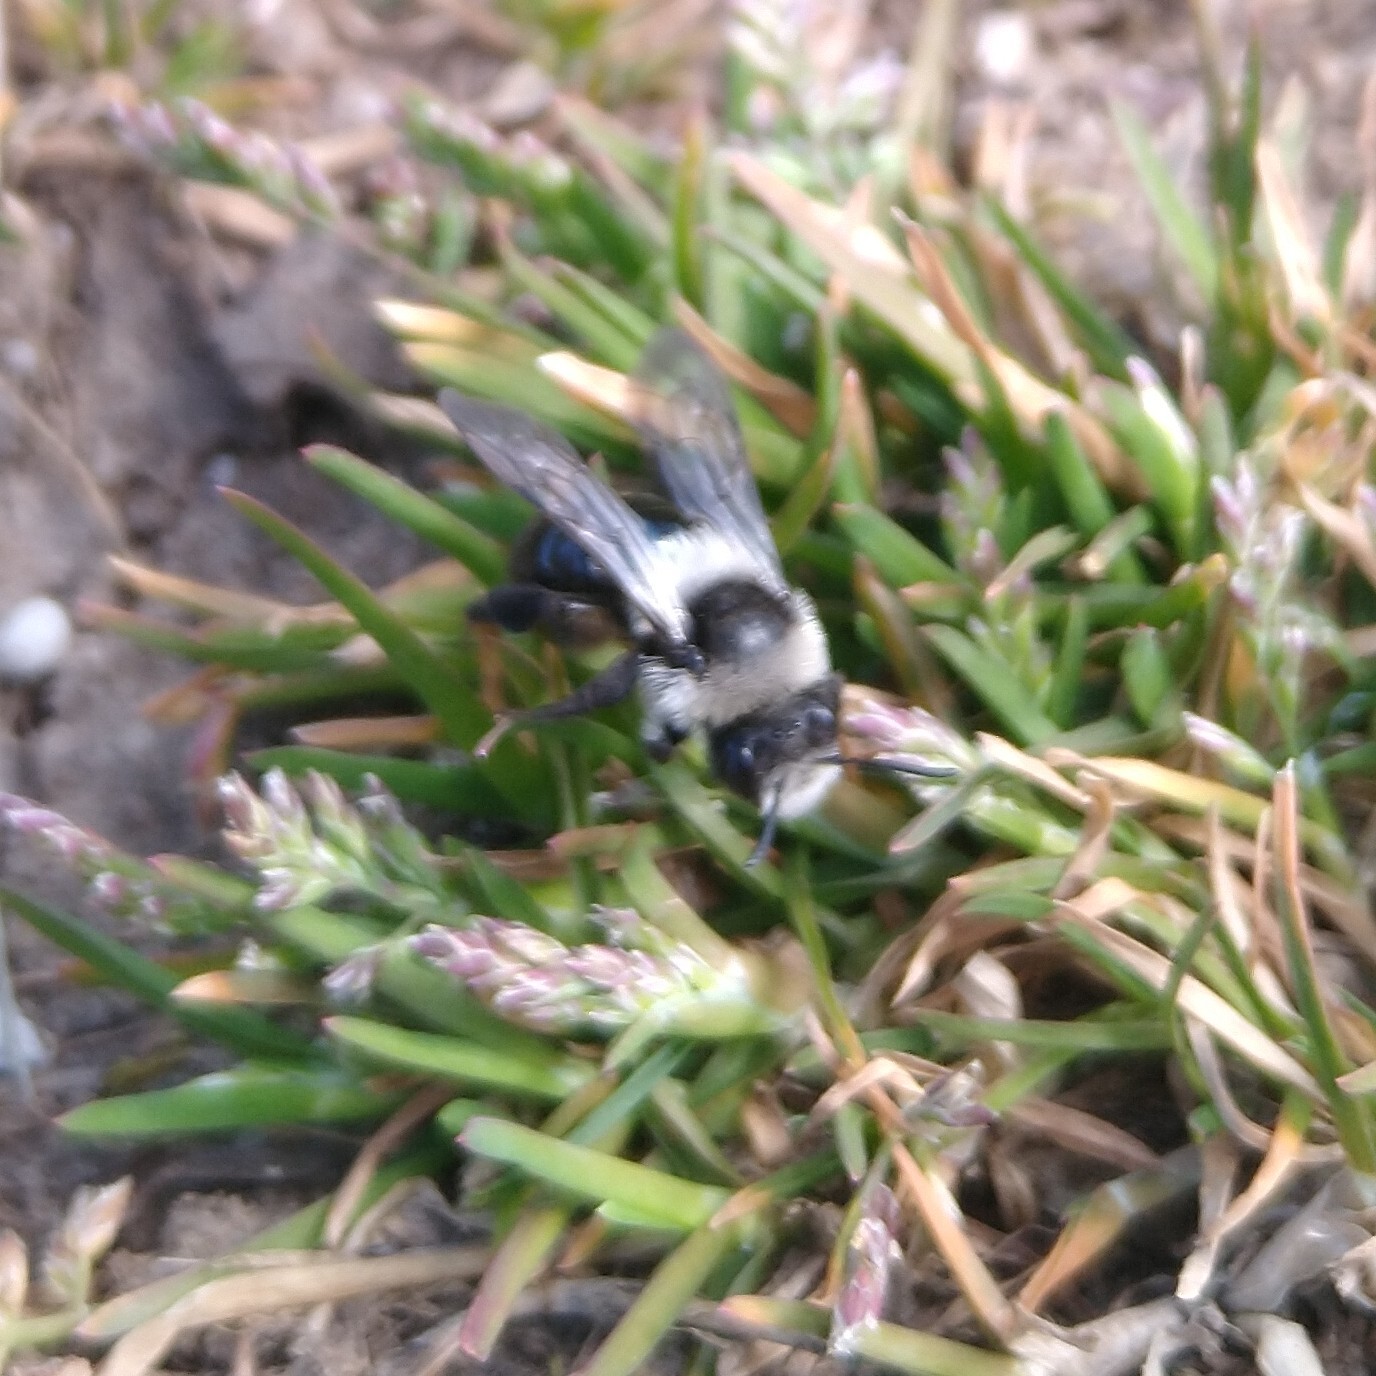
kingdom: Animalia
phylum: Arthropoda
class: Insecta
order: Hymenoptera
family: Andrenidae
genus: Andrena
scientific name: Andrena cineraria
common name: Ashy mining bee
